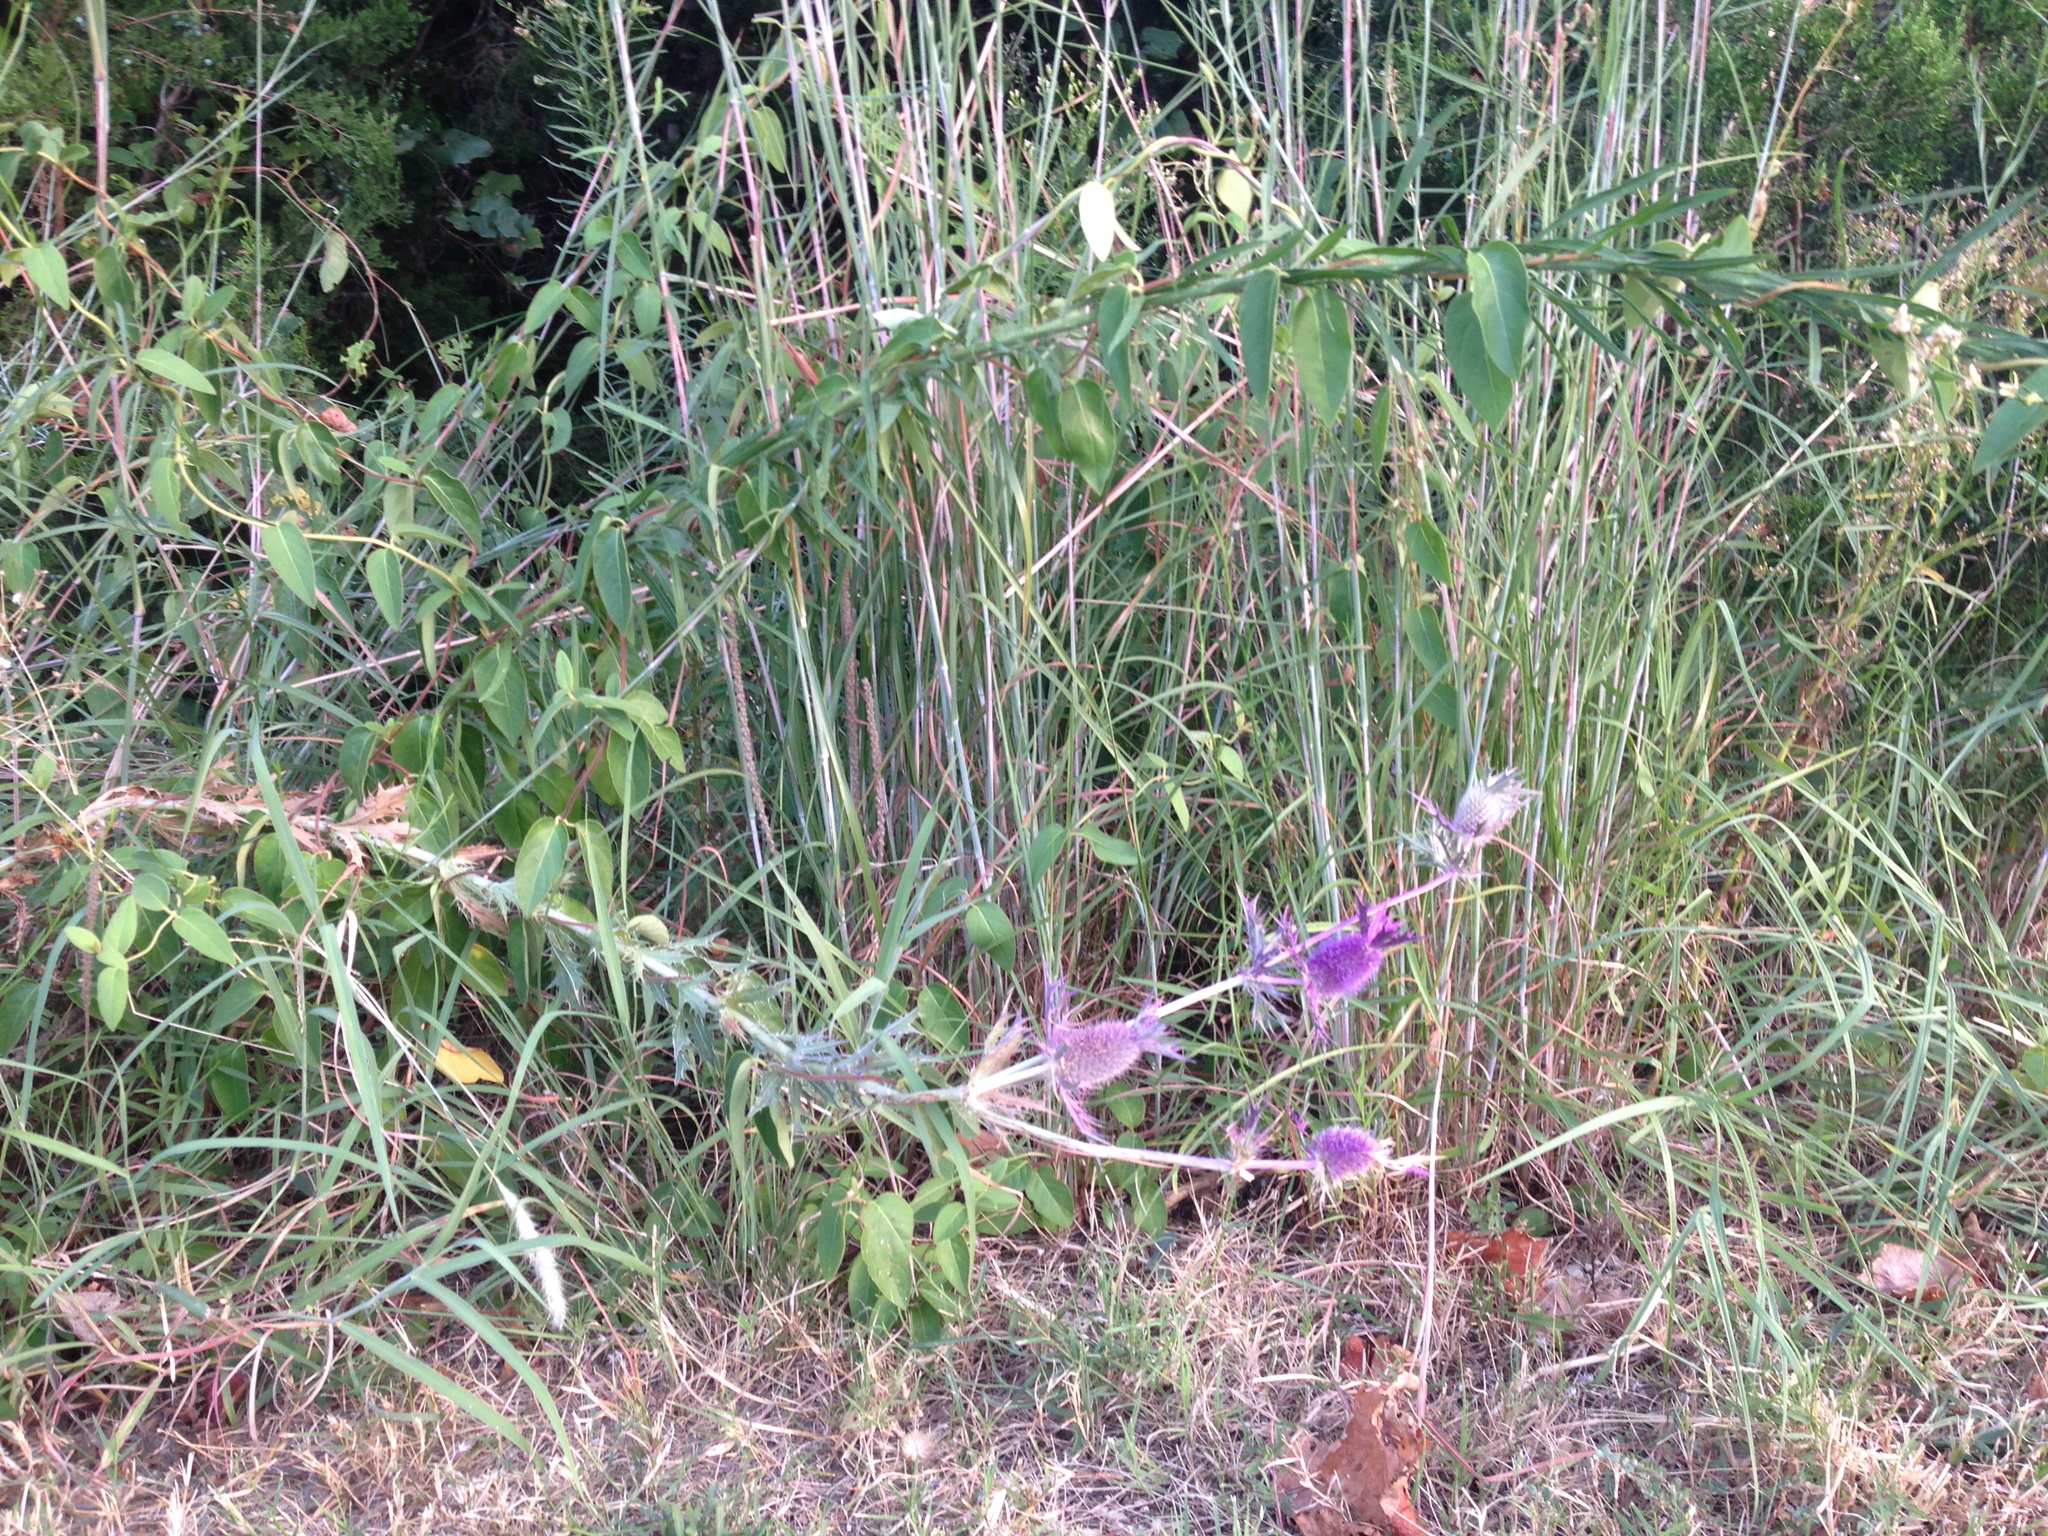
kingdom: Plantae
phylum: Tracheophyta
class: Magnoliopsida
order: Apiales
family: Apiaceae
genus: Eryngium
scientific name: Eryngium leavenworthii
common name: Leavenworth's eryngo
